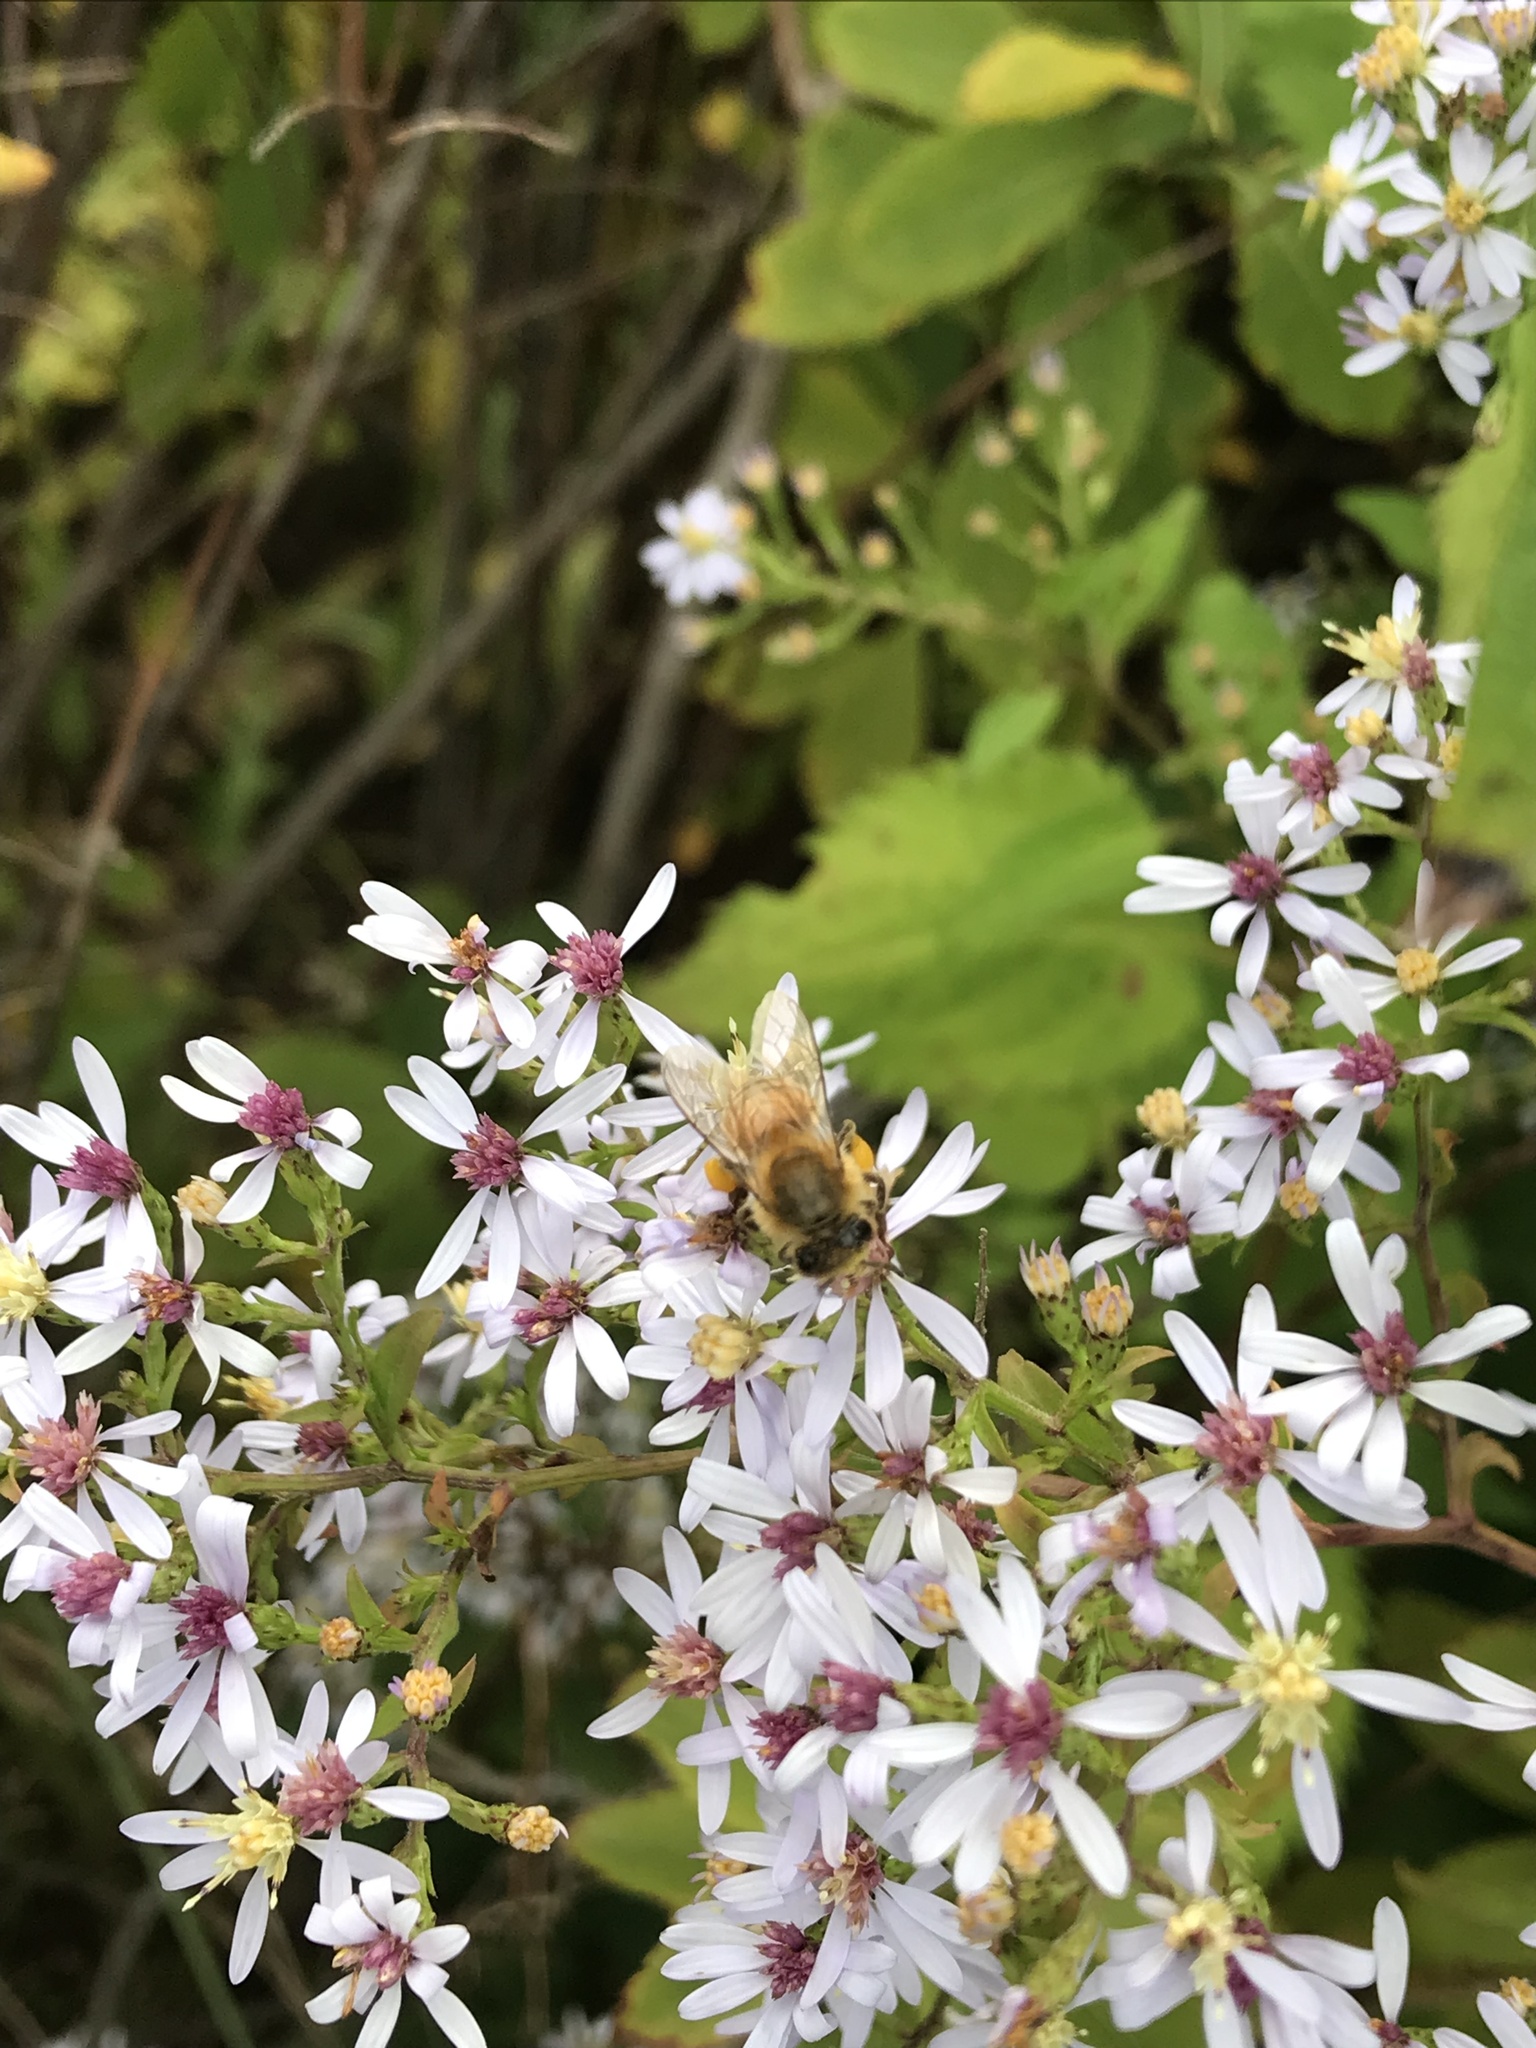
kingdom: Animalia
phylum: Arthropoda
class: Insecta
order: Hymenoptera
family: Apidae
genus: Apis
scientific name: Apis mellifera
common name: Honey bee
